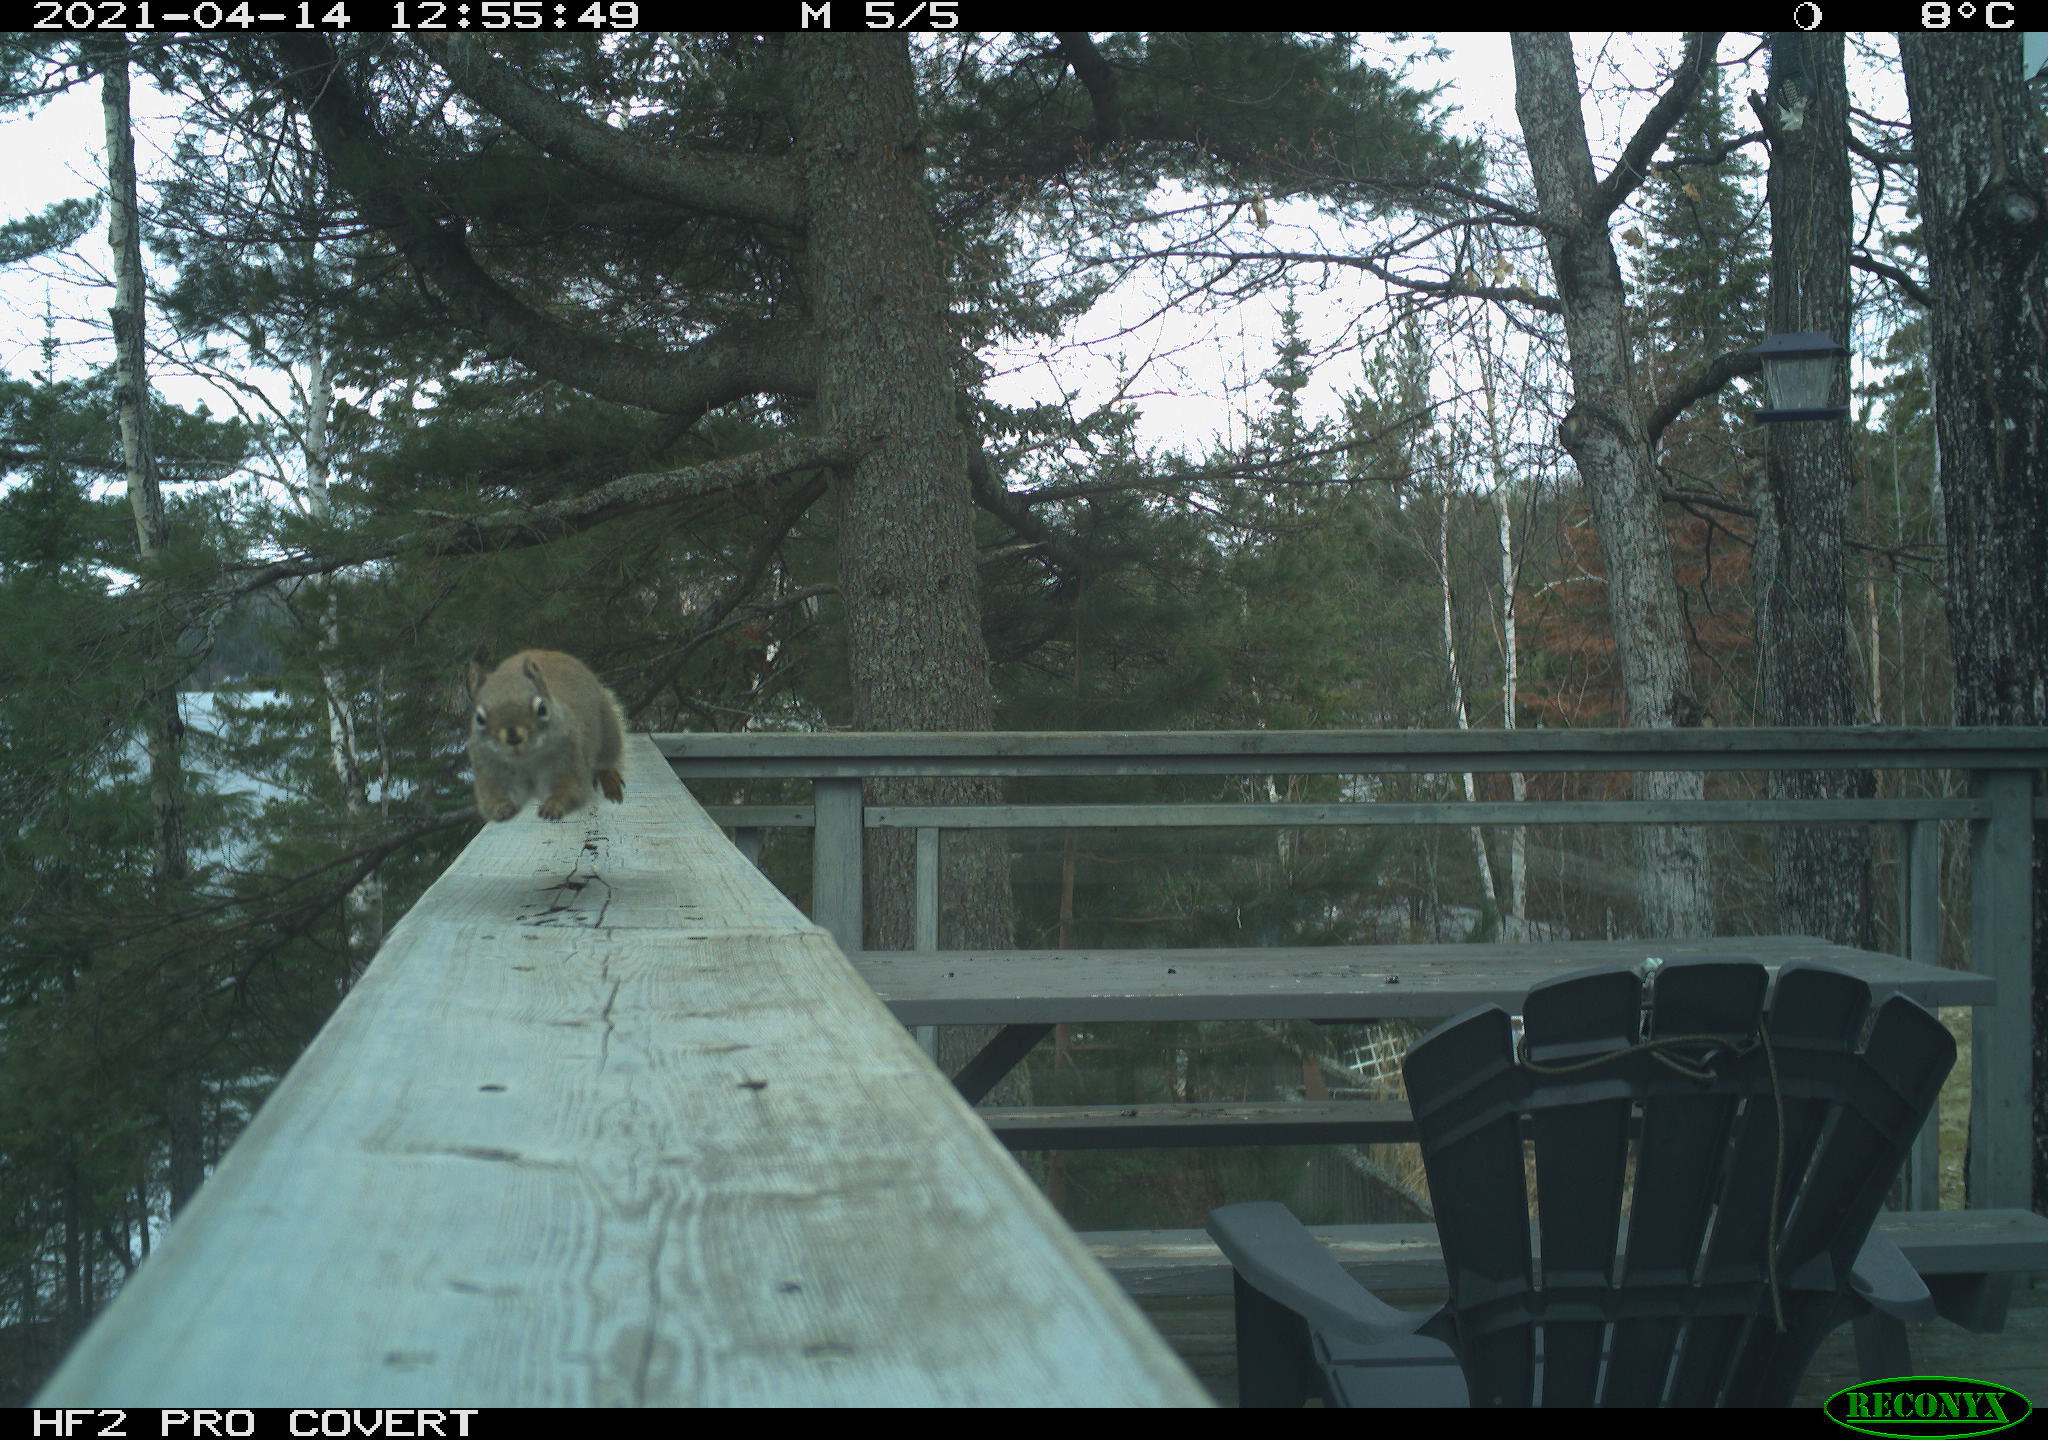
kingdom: Animalia
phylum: Chordata
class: Mammalia
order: Rodentia
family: Sciuridae
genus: Tamiasciurus
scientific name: Tamiasciurus hudsonicus
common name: Red squirrel
